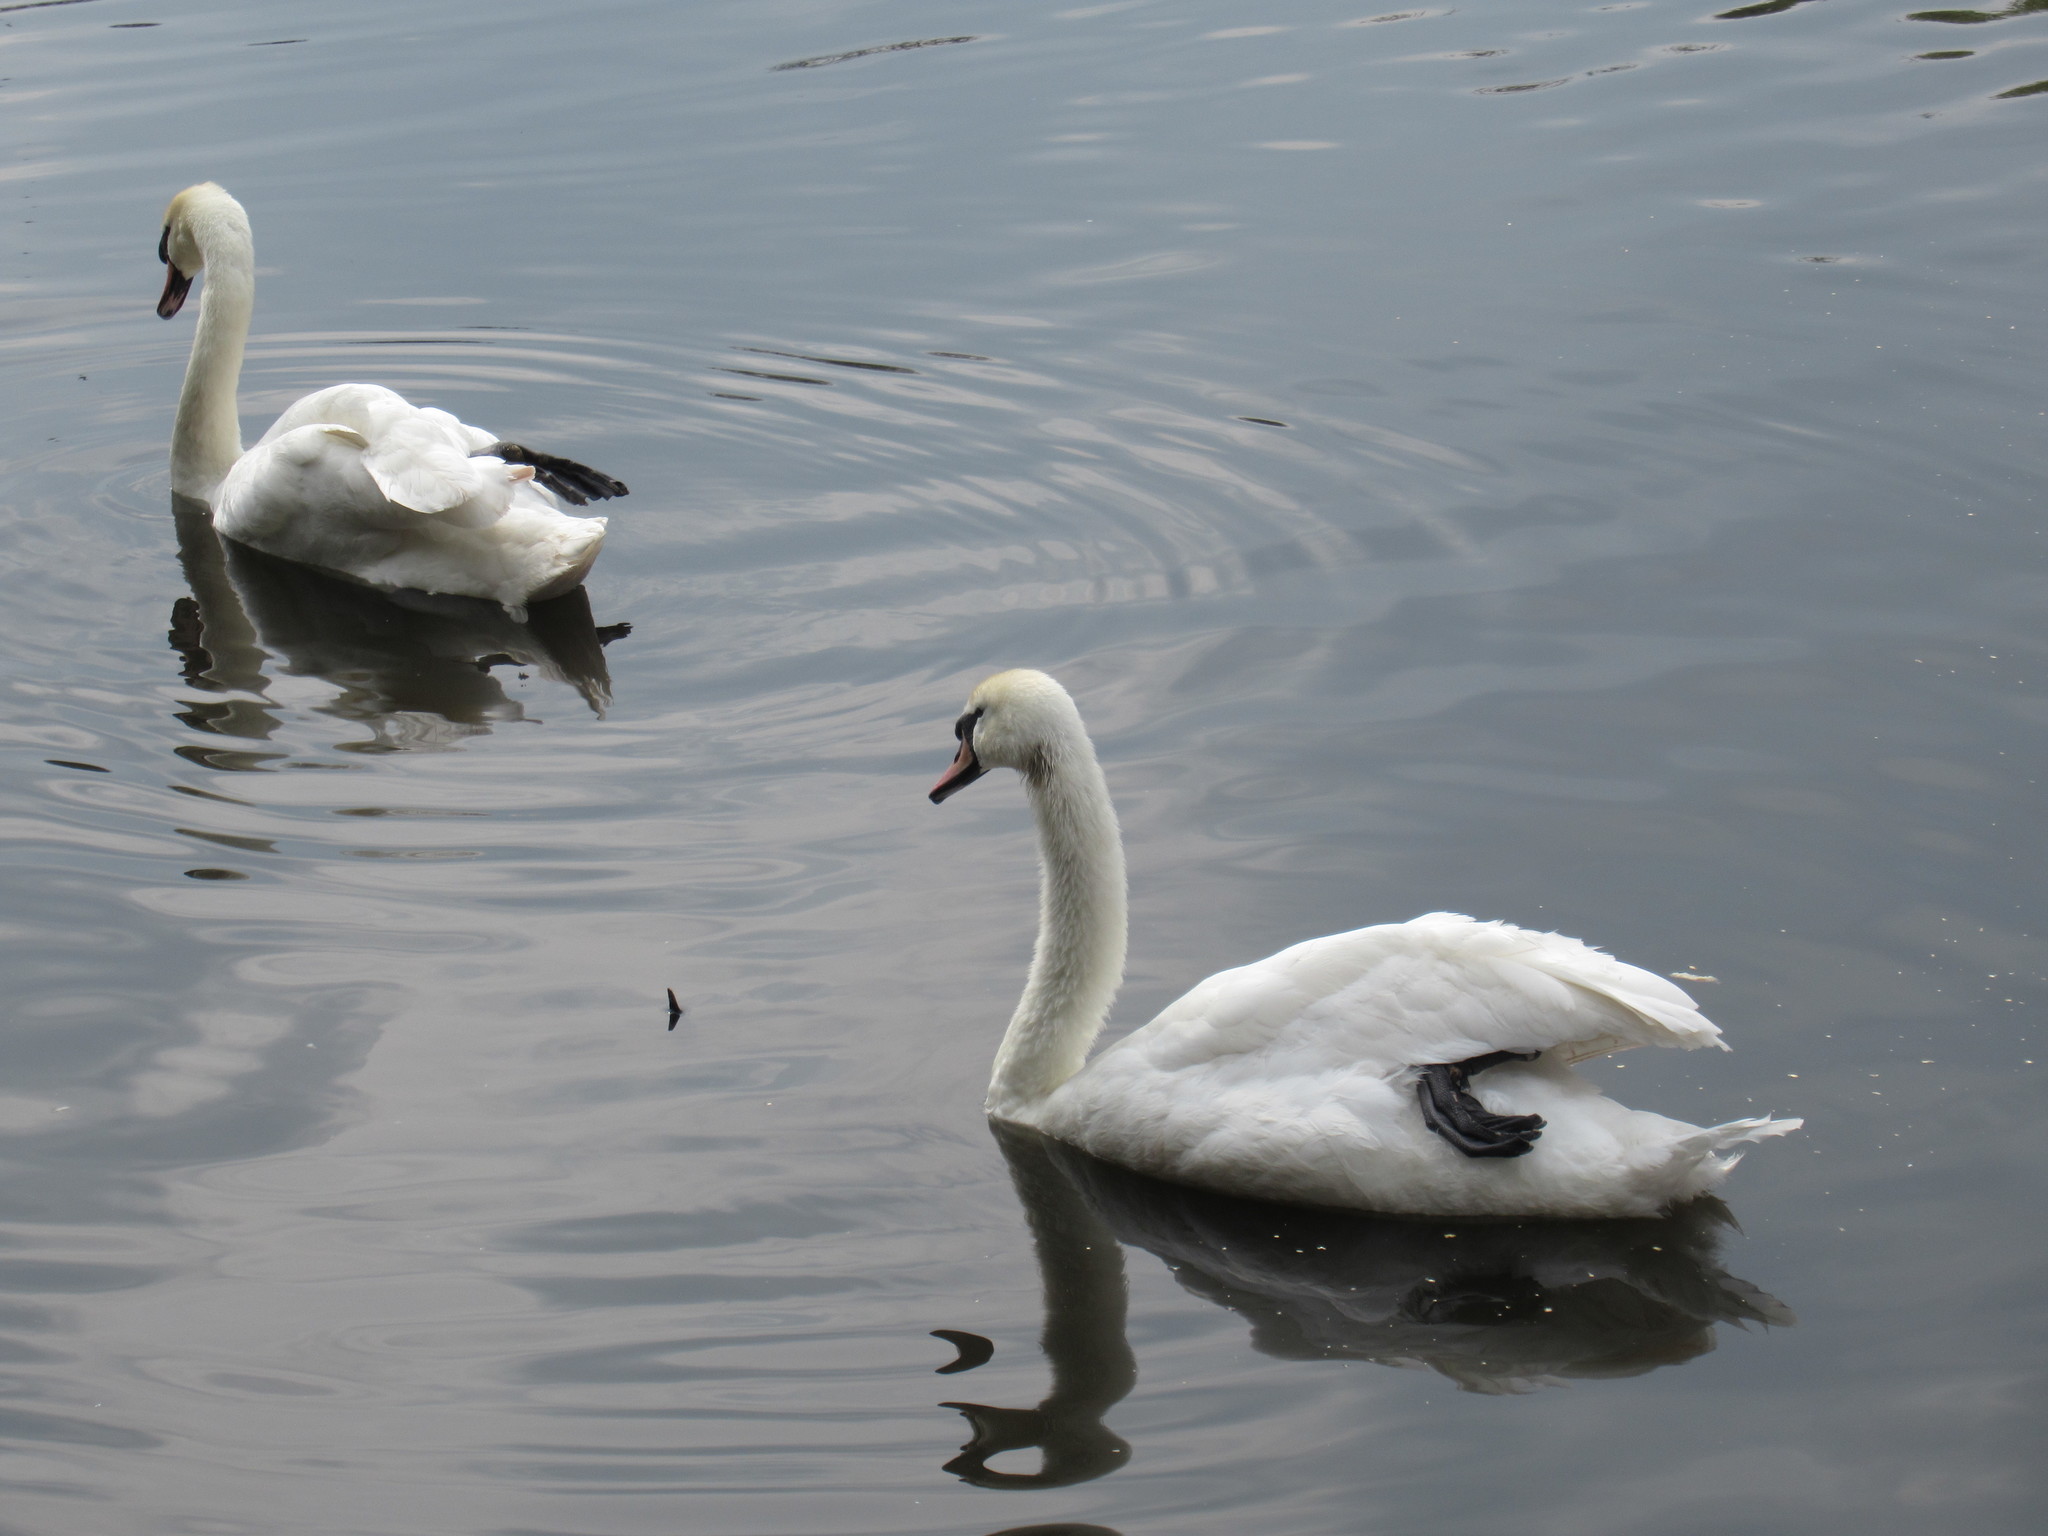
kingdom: Animalia
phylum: Chordata
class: Aves
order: Anseriformes
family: Anatidae
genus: Cygnus
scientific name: Cygnus olor
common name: Mute swan
